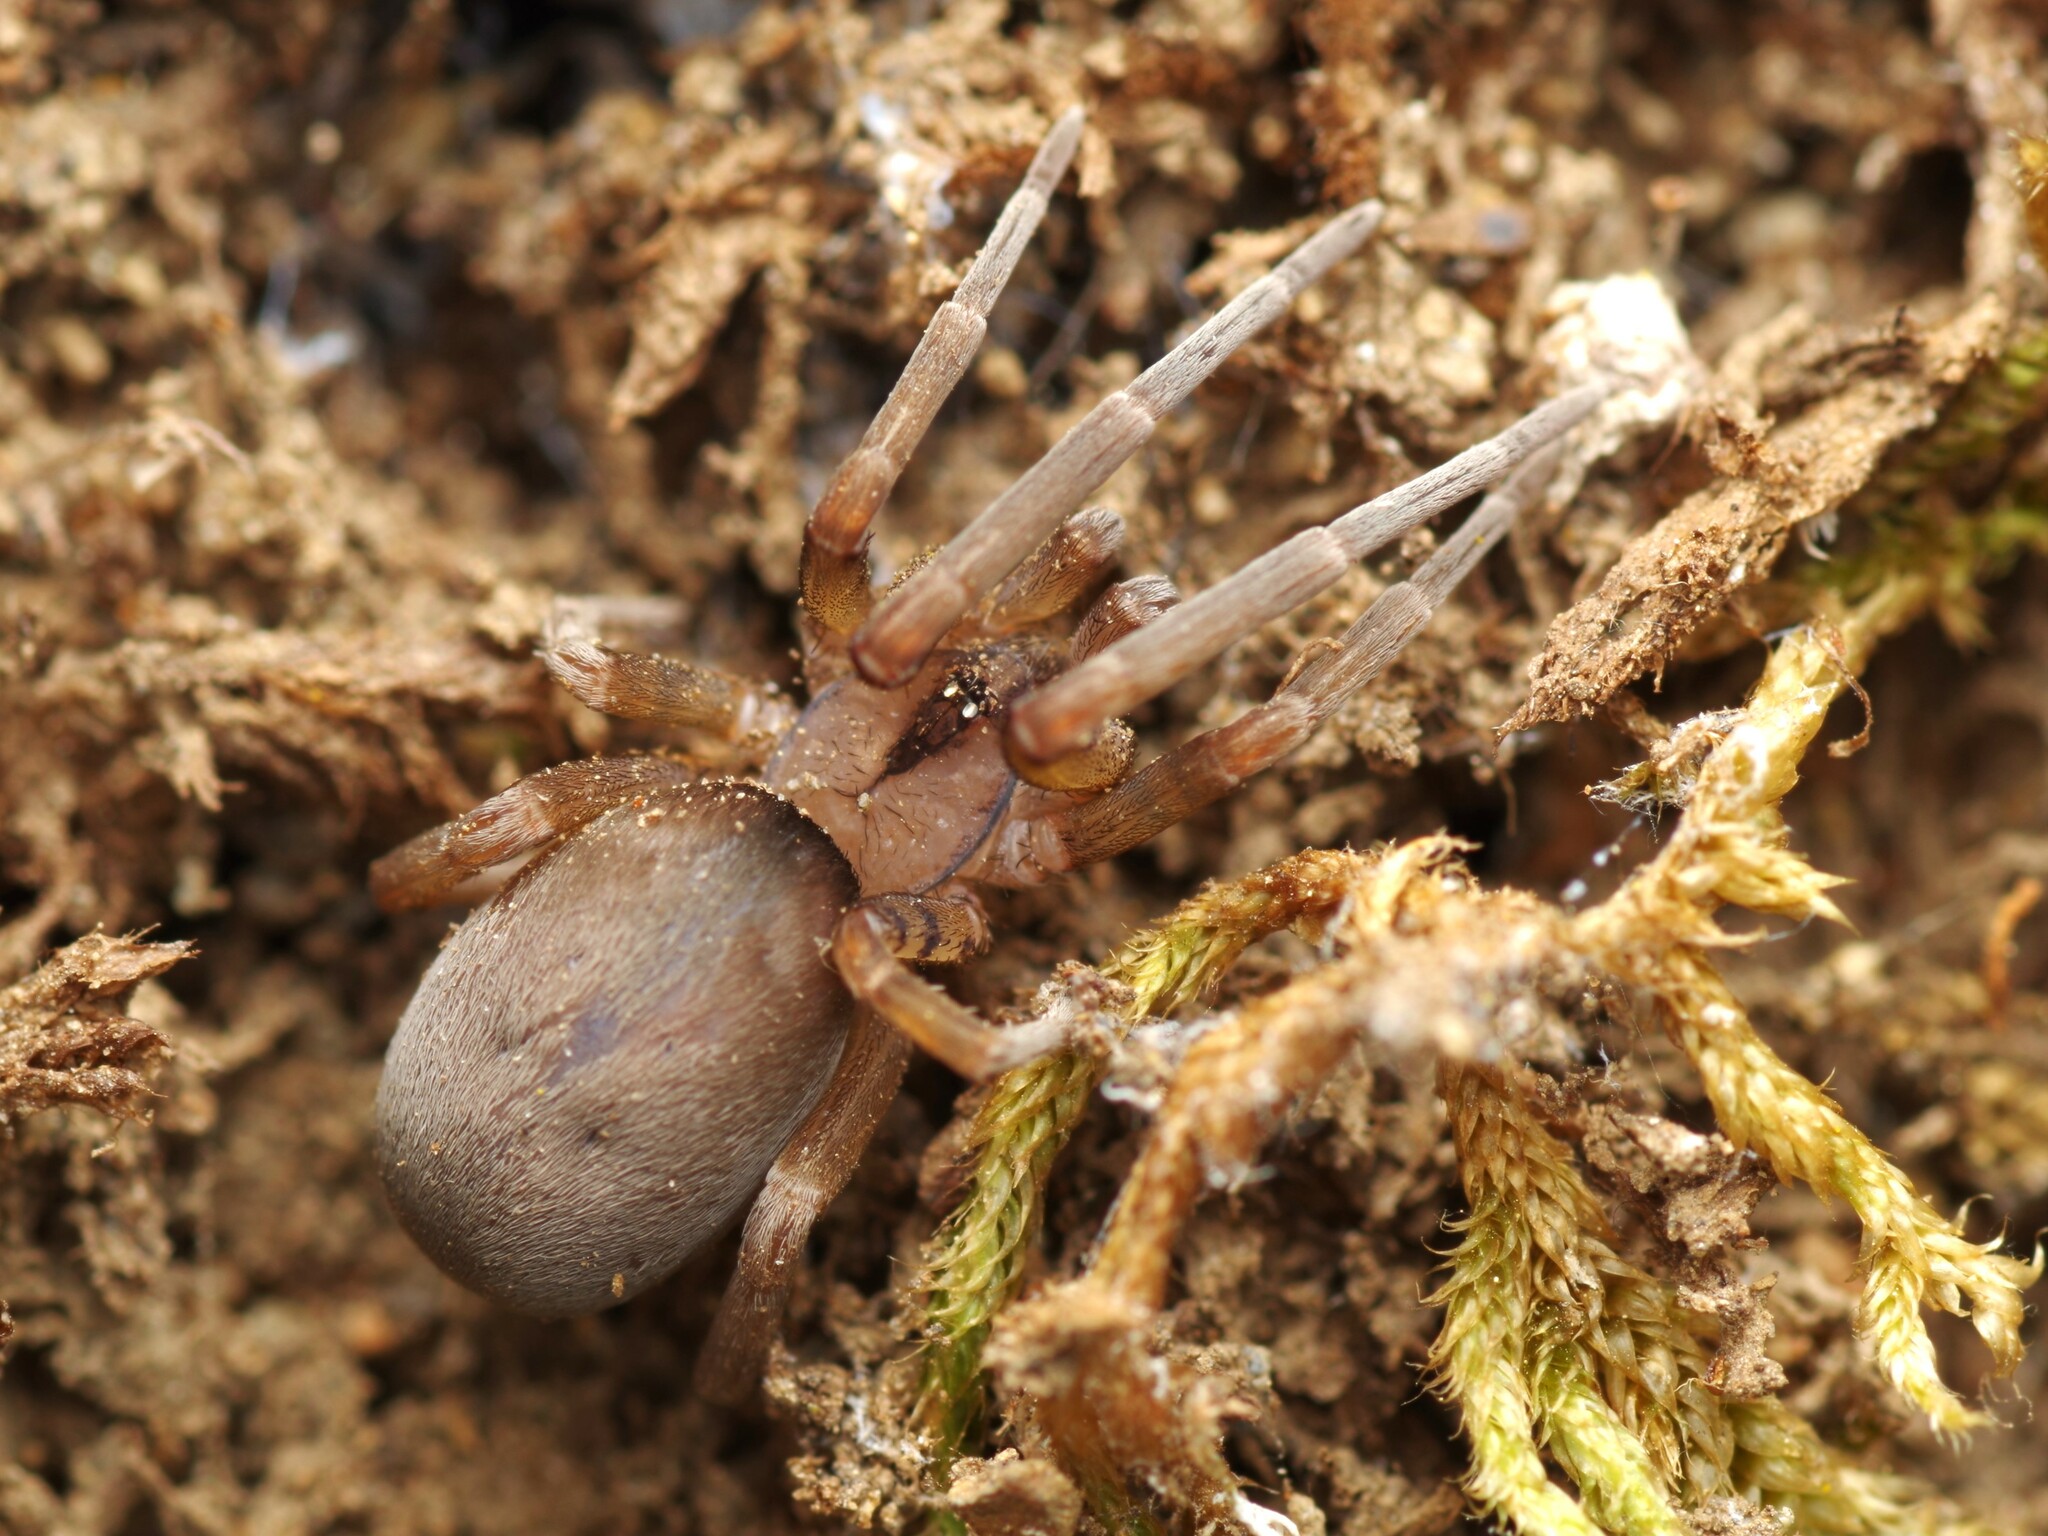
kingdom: Animalia
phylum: Arthropoda
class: Arachnida
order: Araneae
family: Filistatidae
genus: Filistata
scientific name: Filistata insidiatrix
